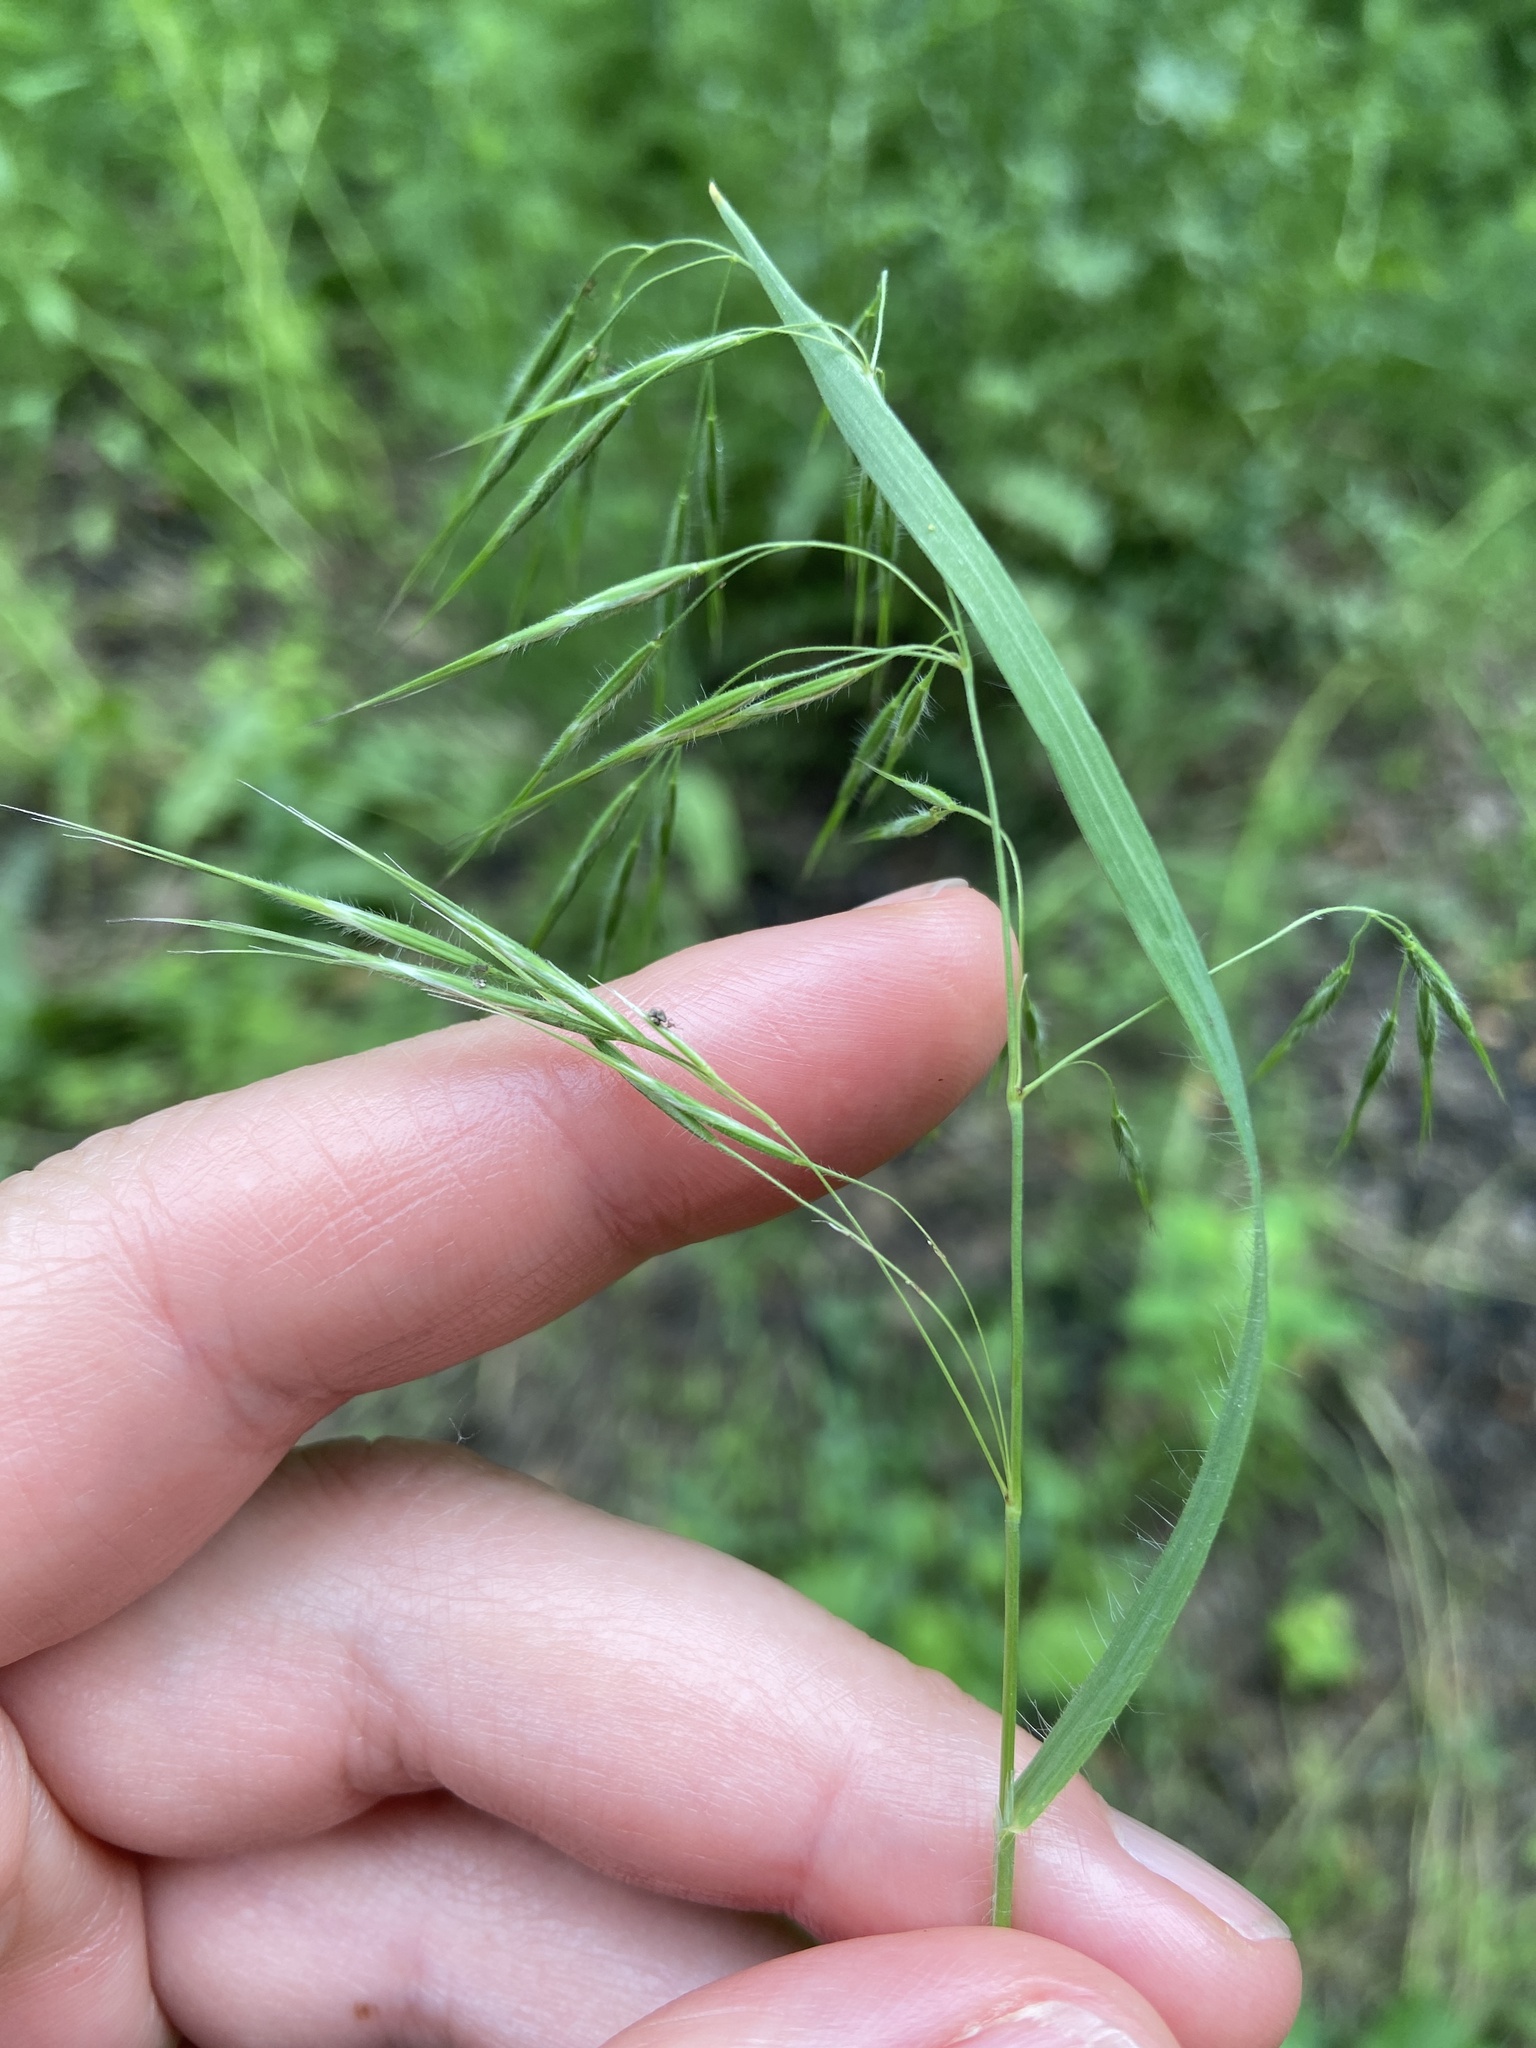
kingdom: Plantae
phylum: Tracheophyta
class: Liliopsida
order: Poales
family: Poaceae
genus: Bromus
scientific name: Bromus tectorum
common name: Cheatgrass
